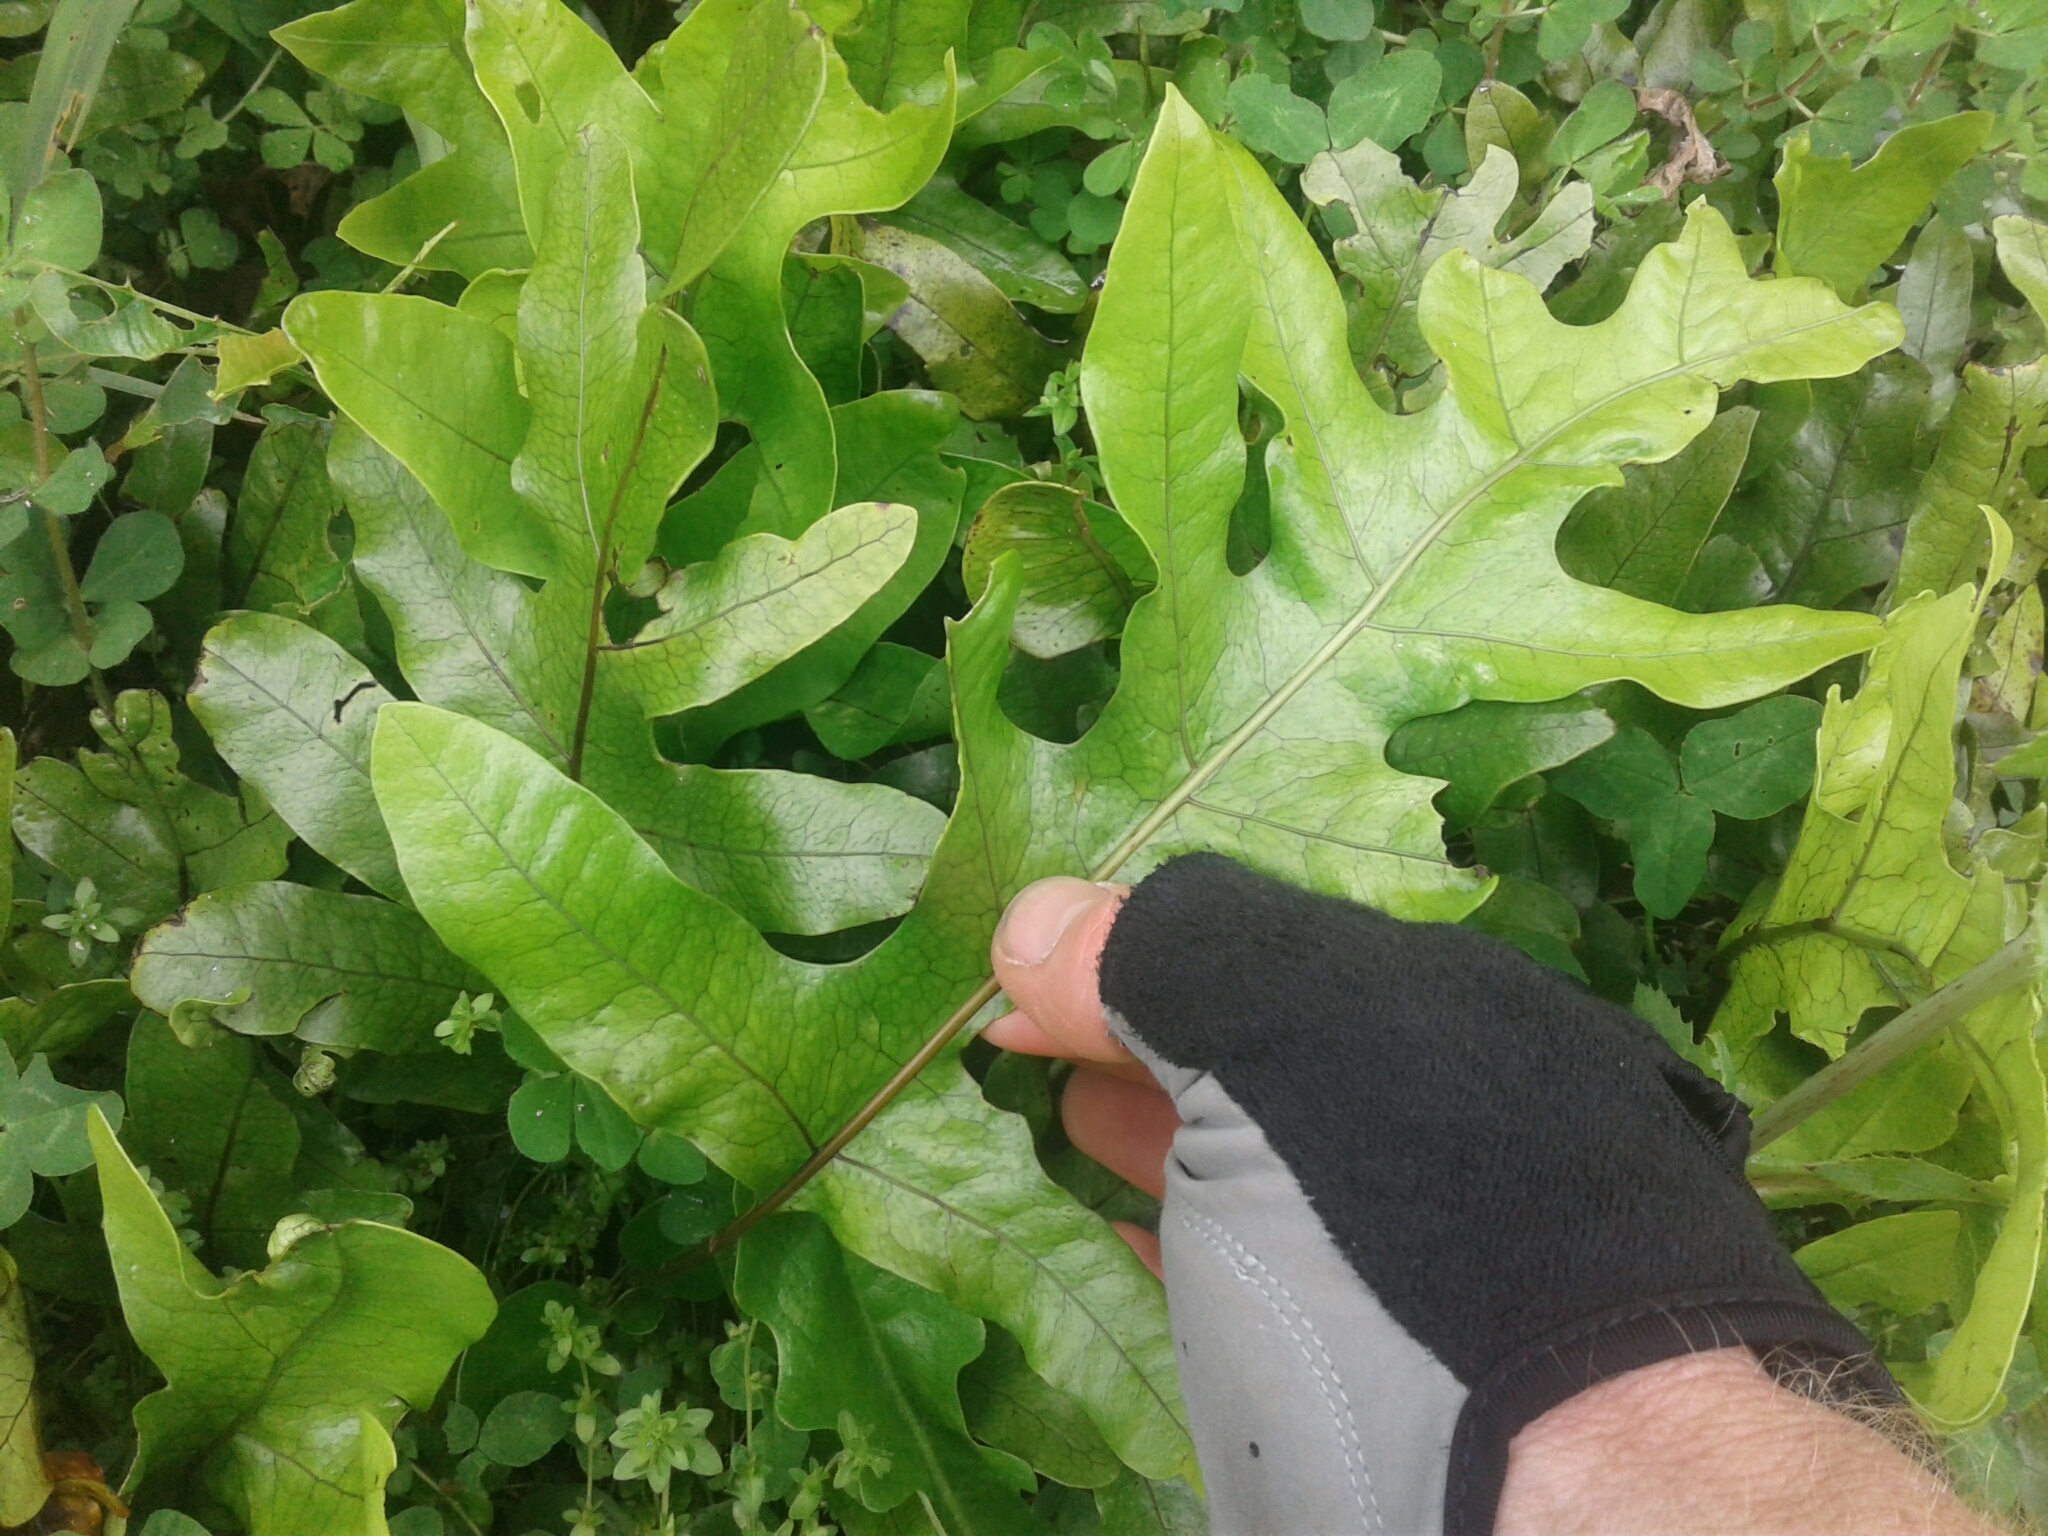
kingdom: Plantae
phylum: Tracheophyta
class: Polypodiopsida
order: Polypodiales
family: Polypodiaceae
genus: Lecanopteris
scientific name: Lecanopteris pustulata
